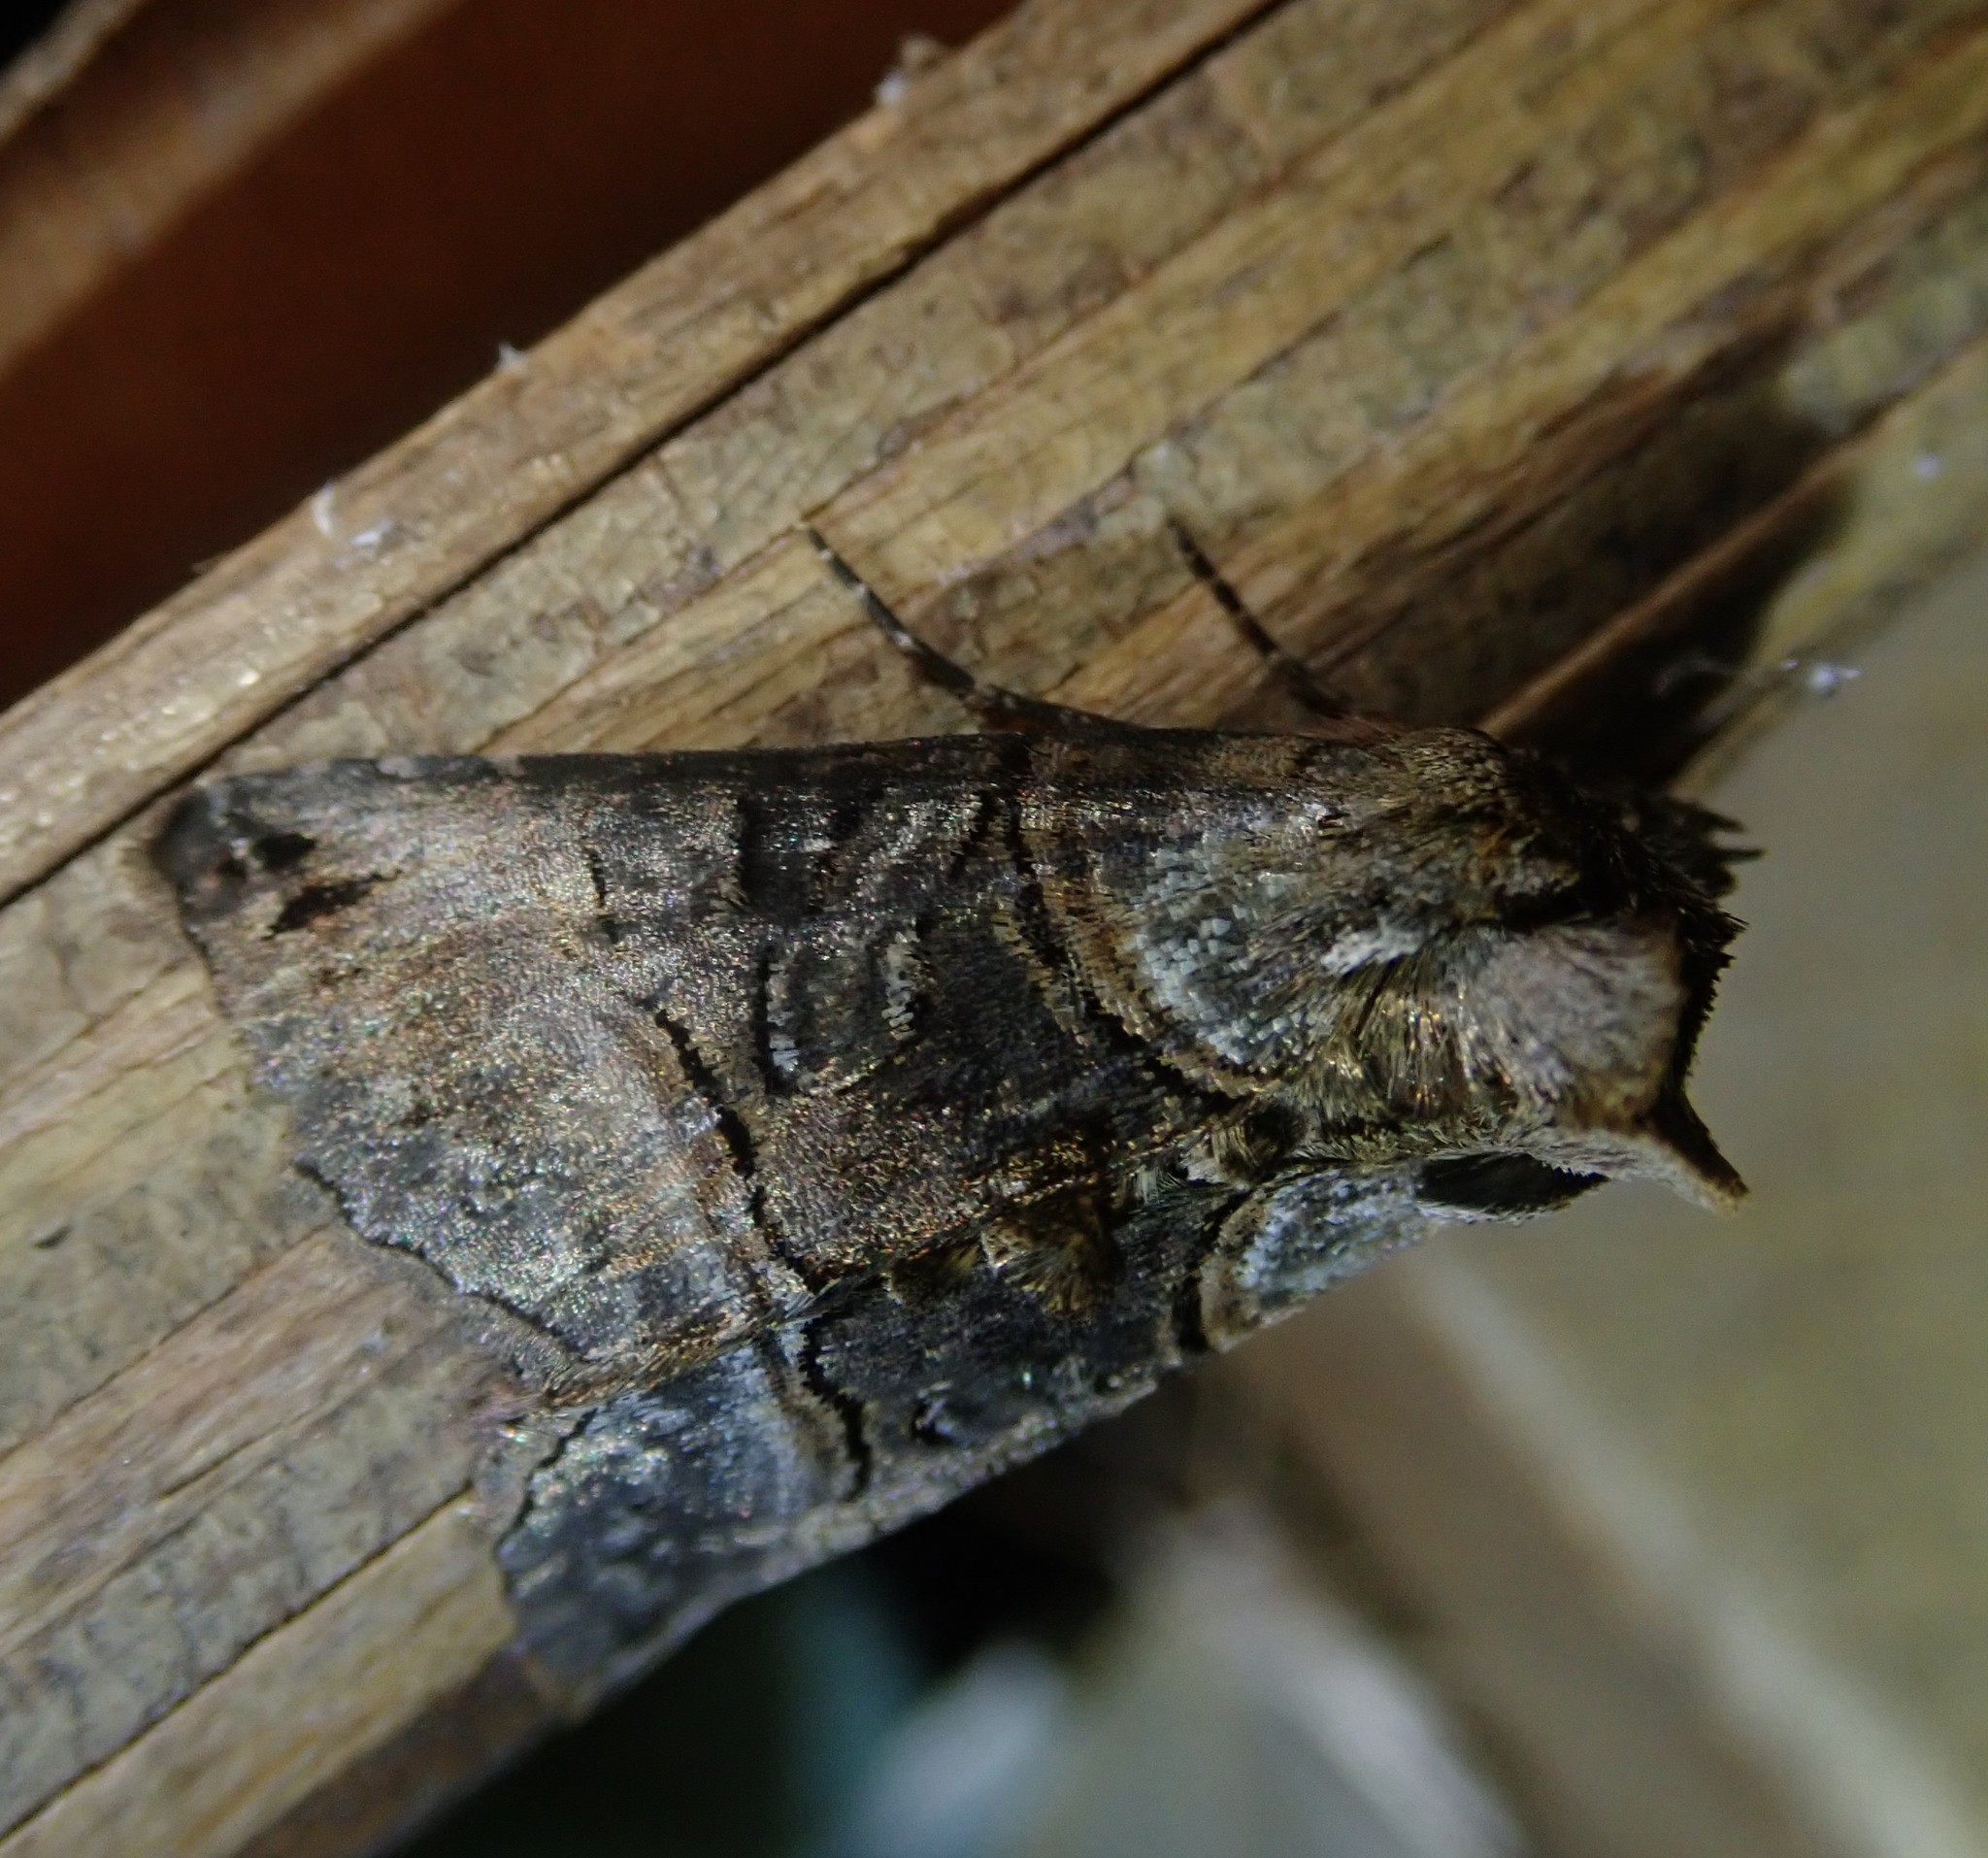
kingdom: Animalia
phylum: Arthropoda
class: Insecta
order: Lepidoptera
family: Noctuidae
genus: Abrostola
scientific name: Abrostola tripartita
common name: Spectacle
